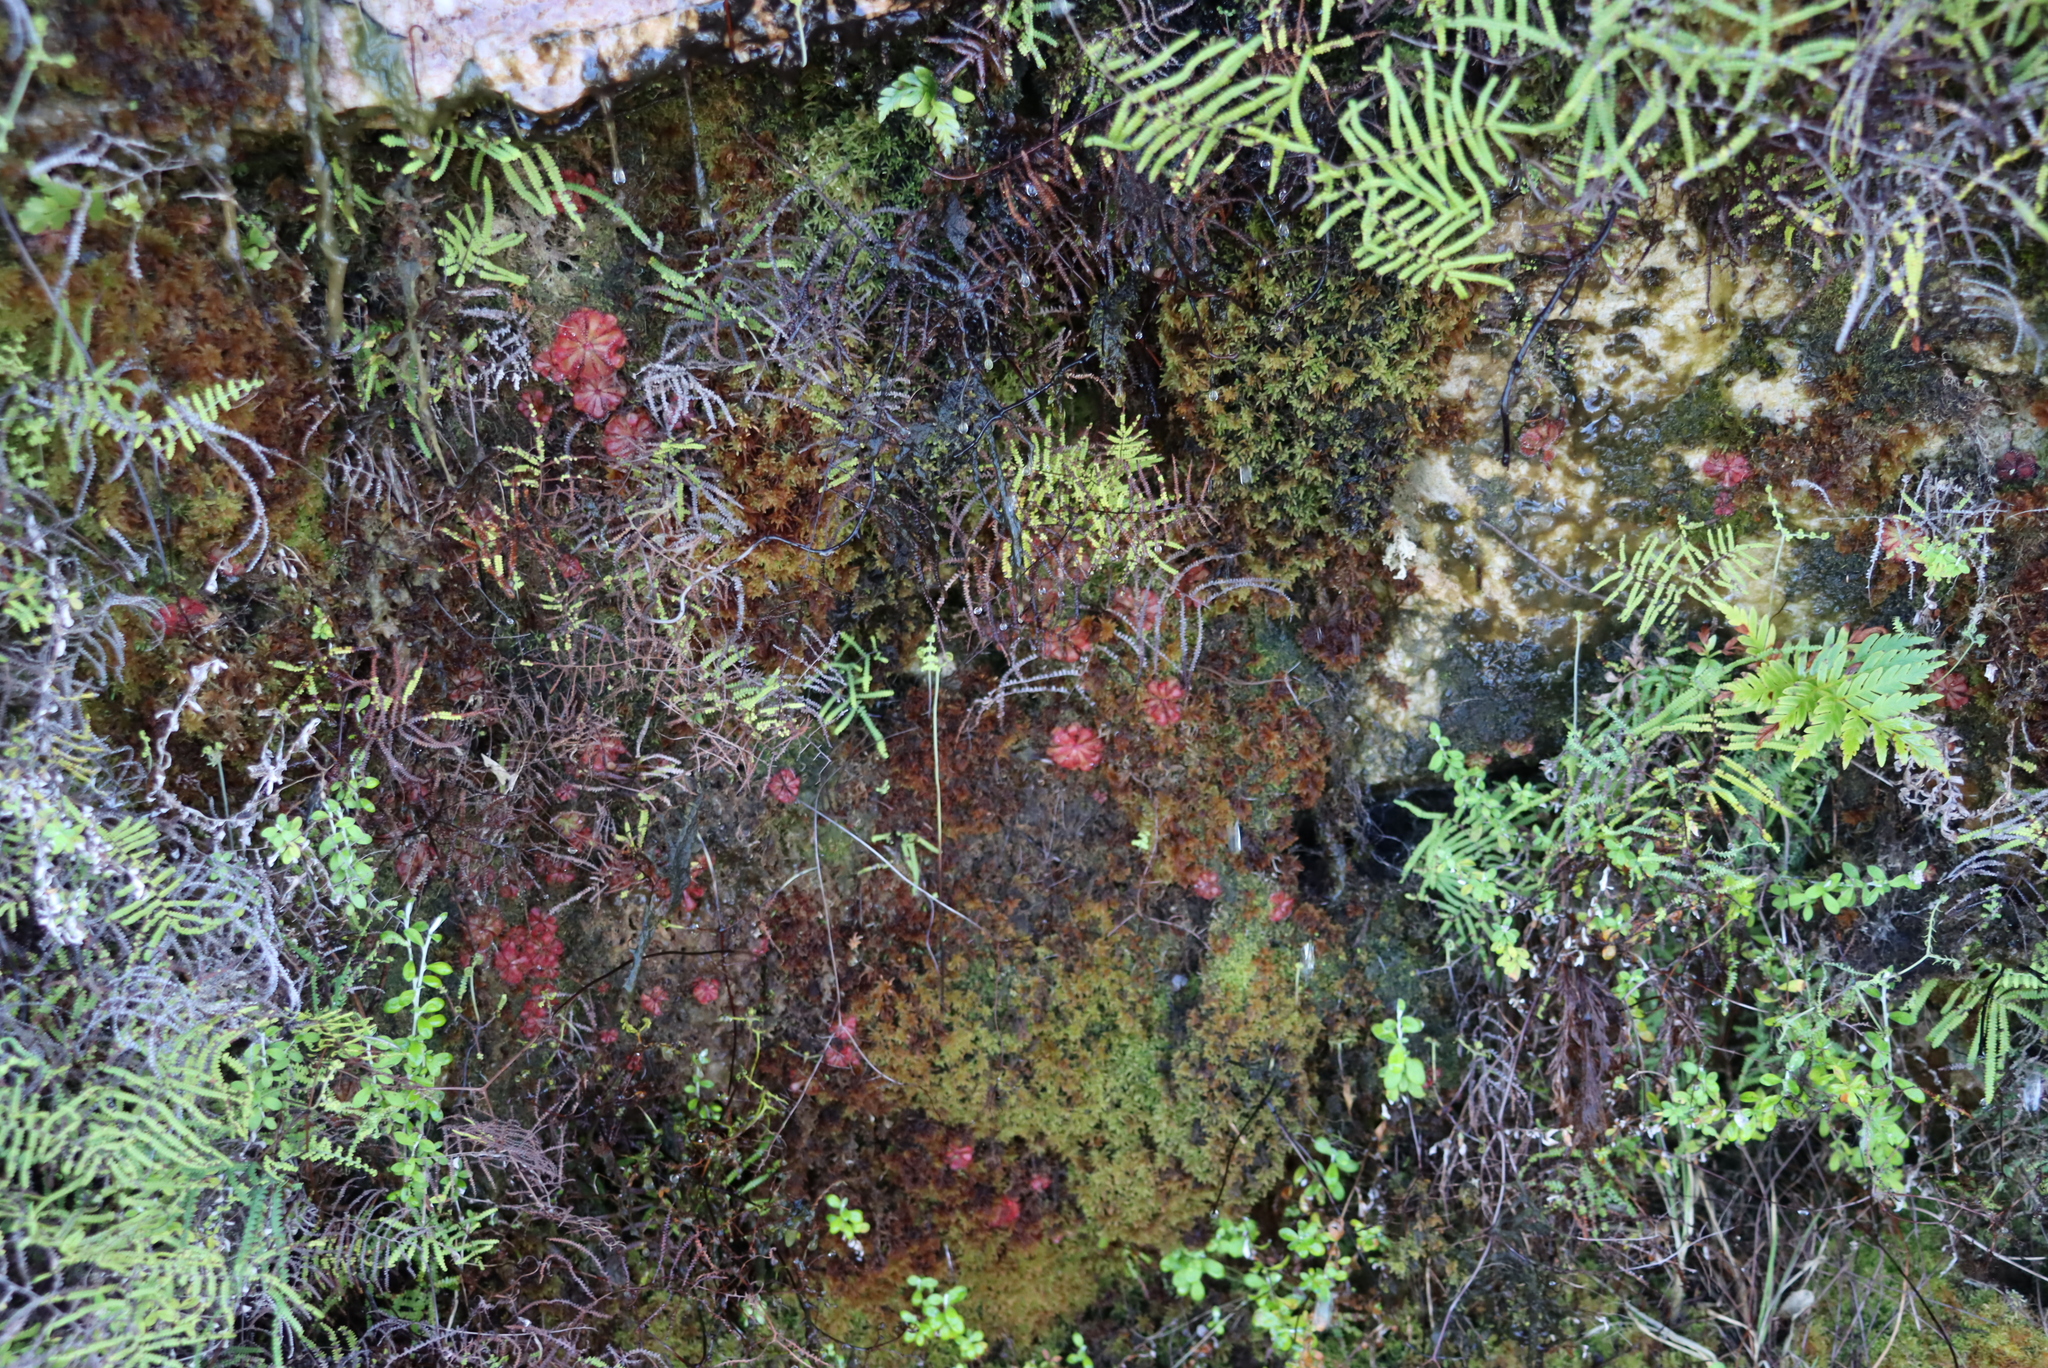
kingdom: Plantae
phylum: Tracheophyta
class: Magnoliopsida
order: Caryophyllales
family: Droseraceae
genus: Drosera
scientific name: Drosera aliciae
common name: Alice sundew
